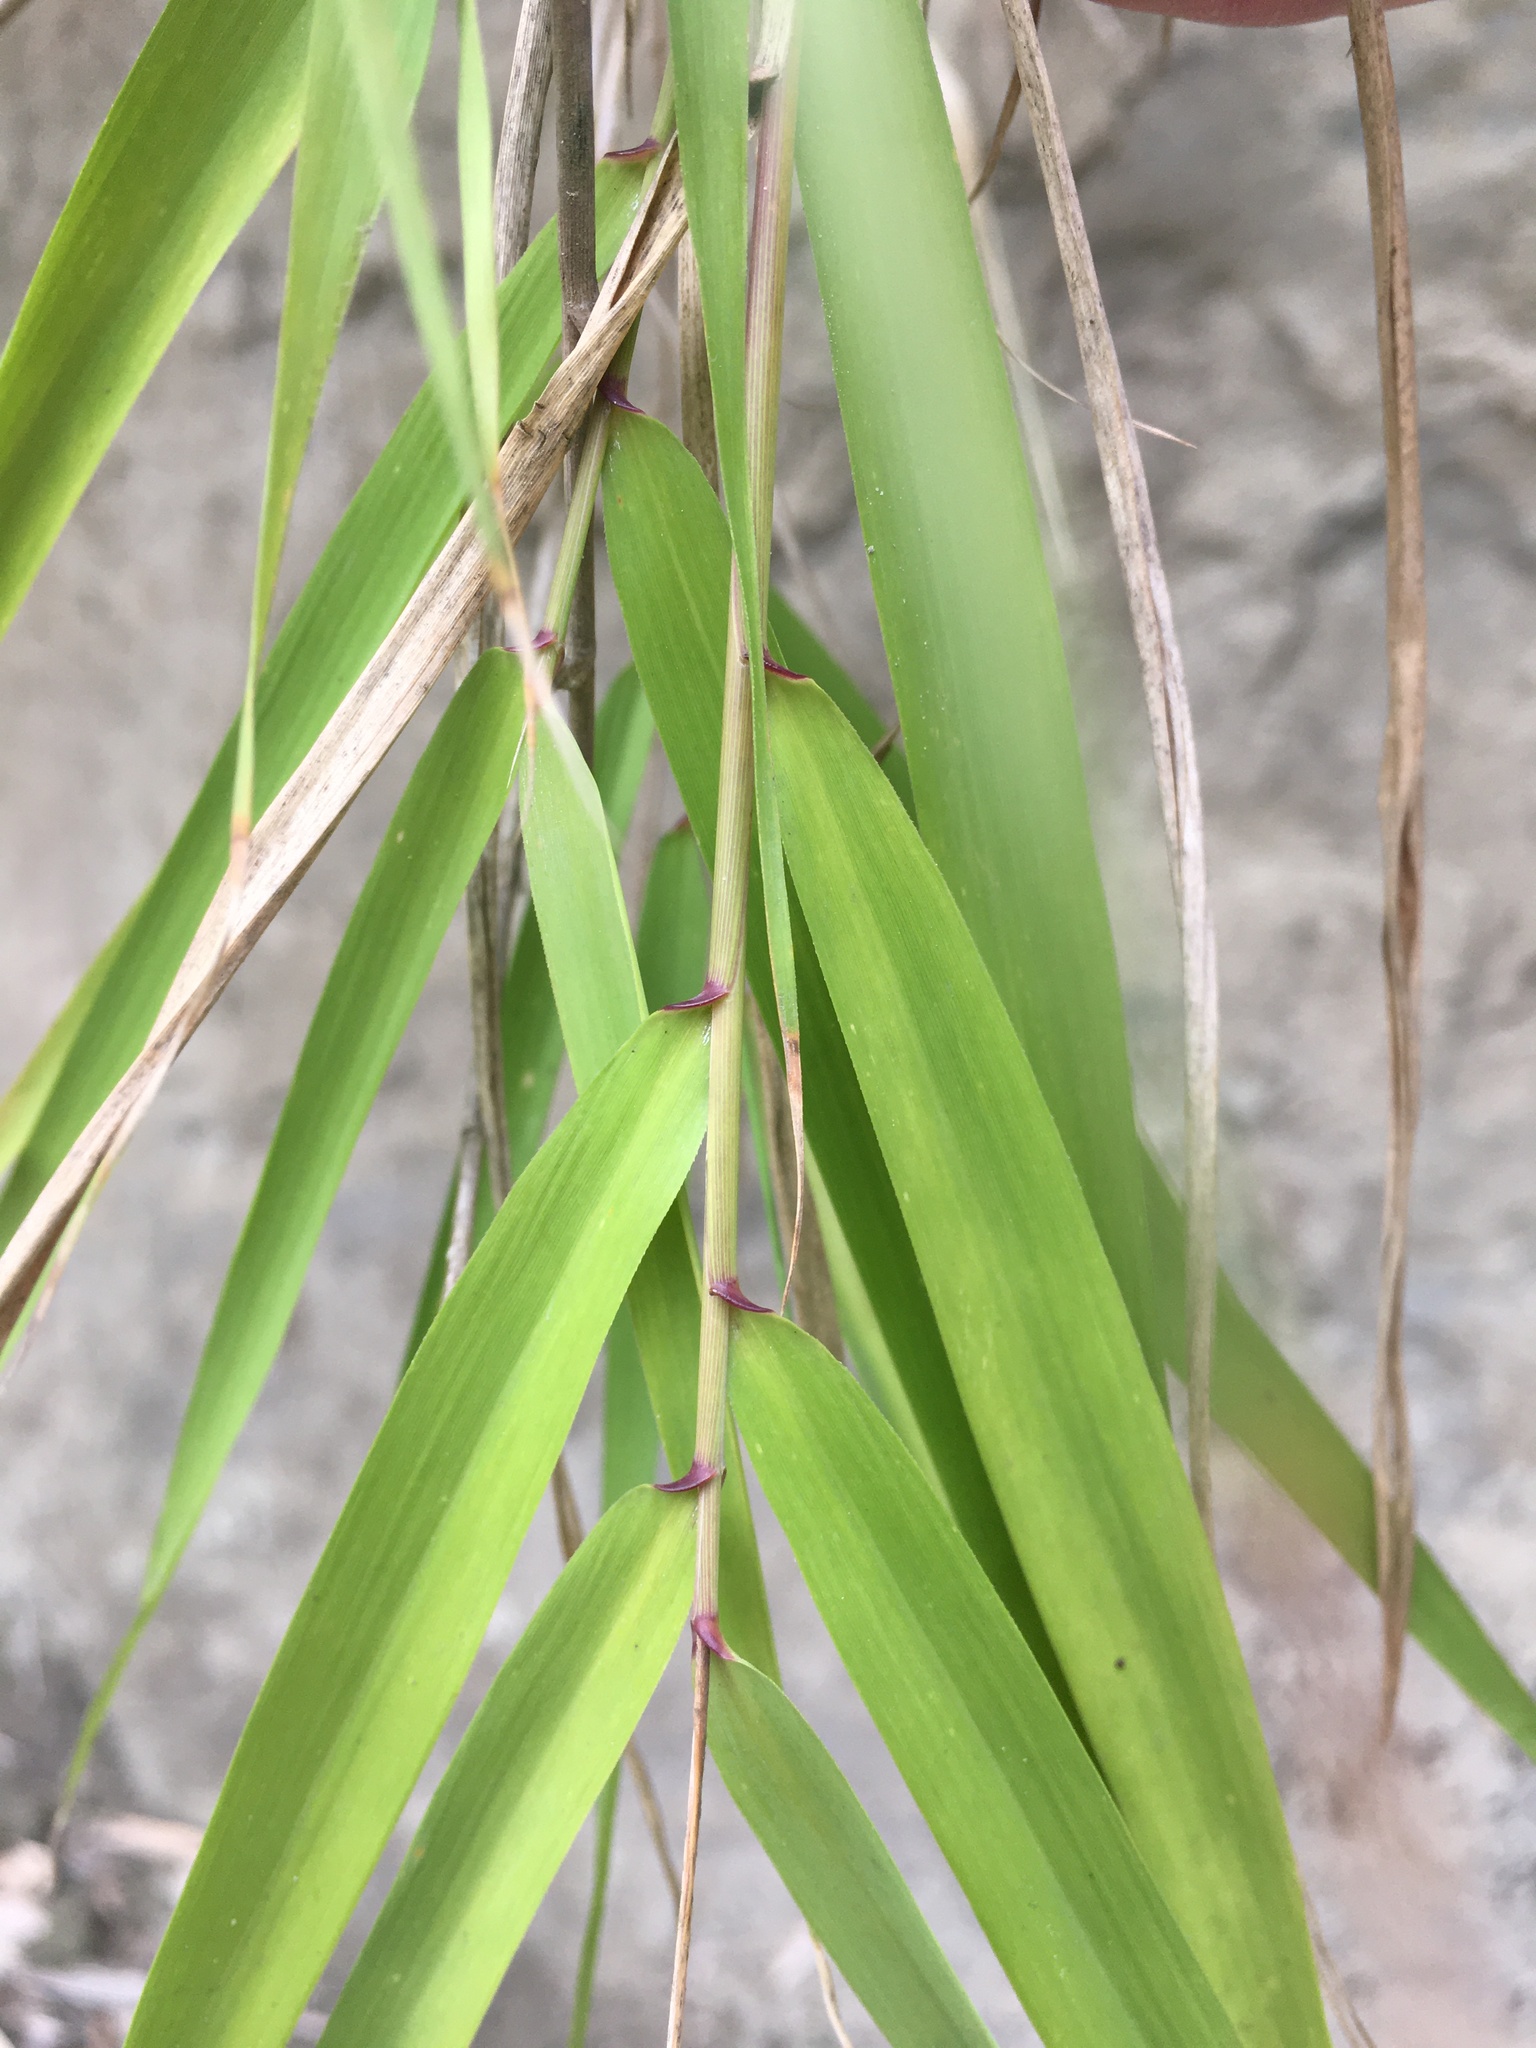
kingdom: Plantae
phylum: Tracheophyta
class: Liliopsida
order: Poales
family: Poaceae
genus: Arundo
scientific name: Arundo donax
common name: Giant reed
